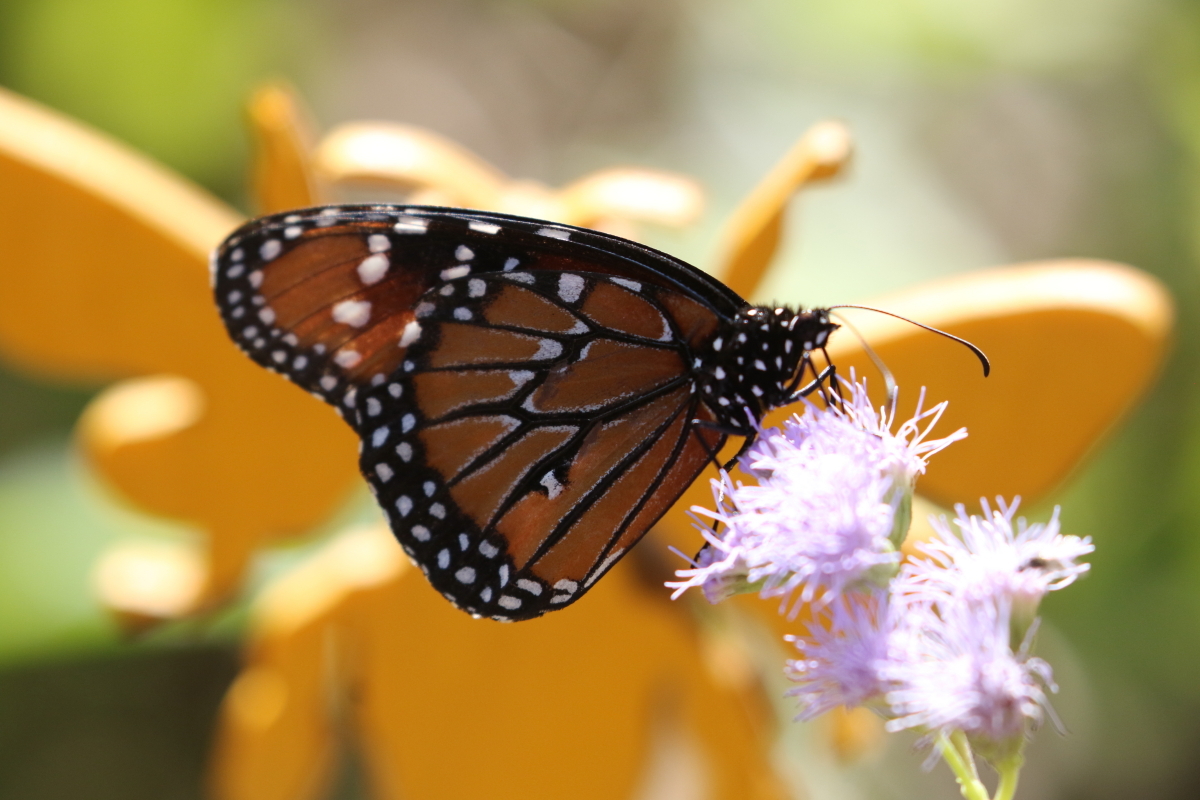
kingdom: Animalia
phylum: Arthropoda
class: Insecta
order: Lepidoptera
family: Nymphalidae
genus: Danaus
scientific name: Danaus gilippus
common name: Queen
